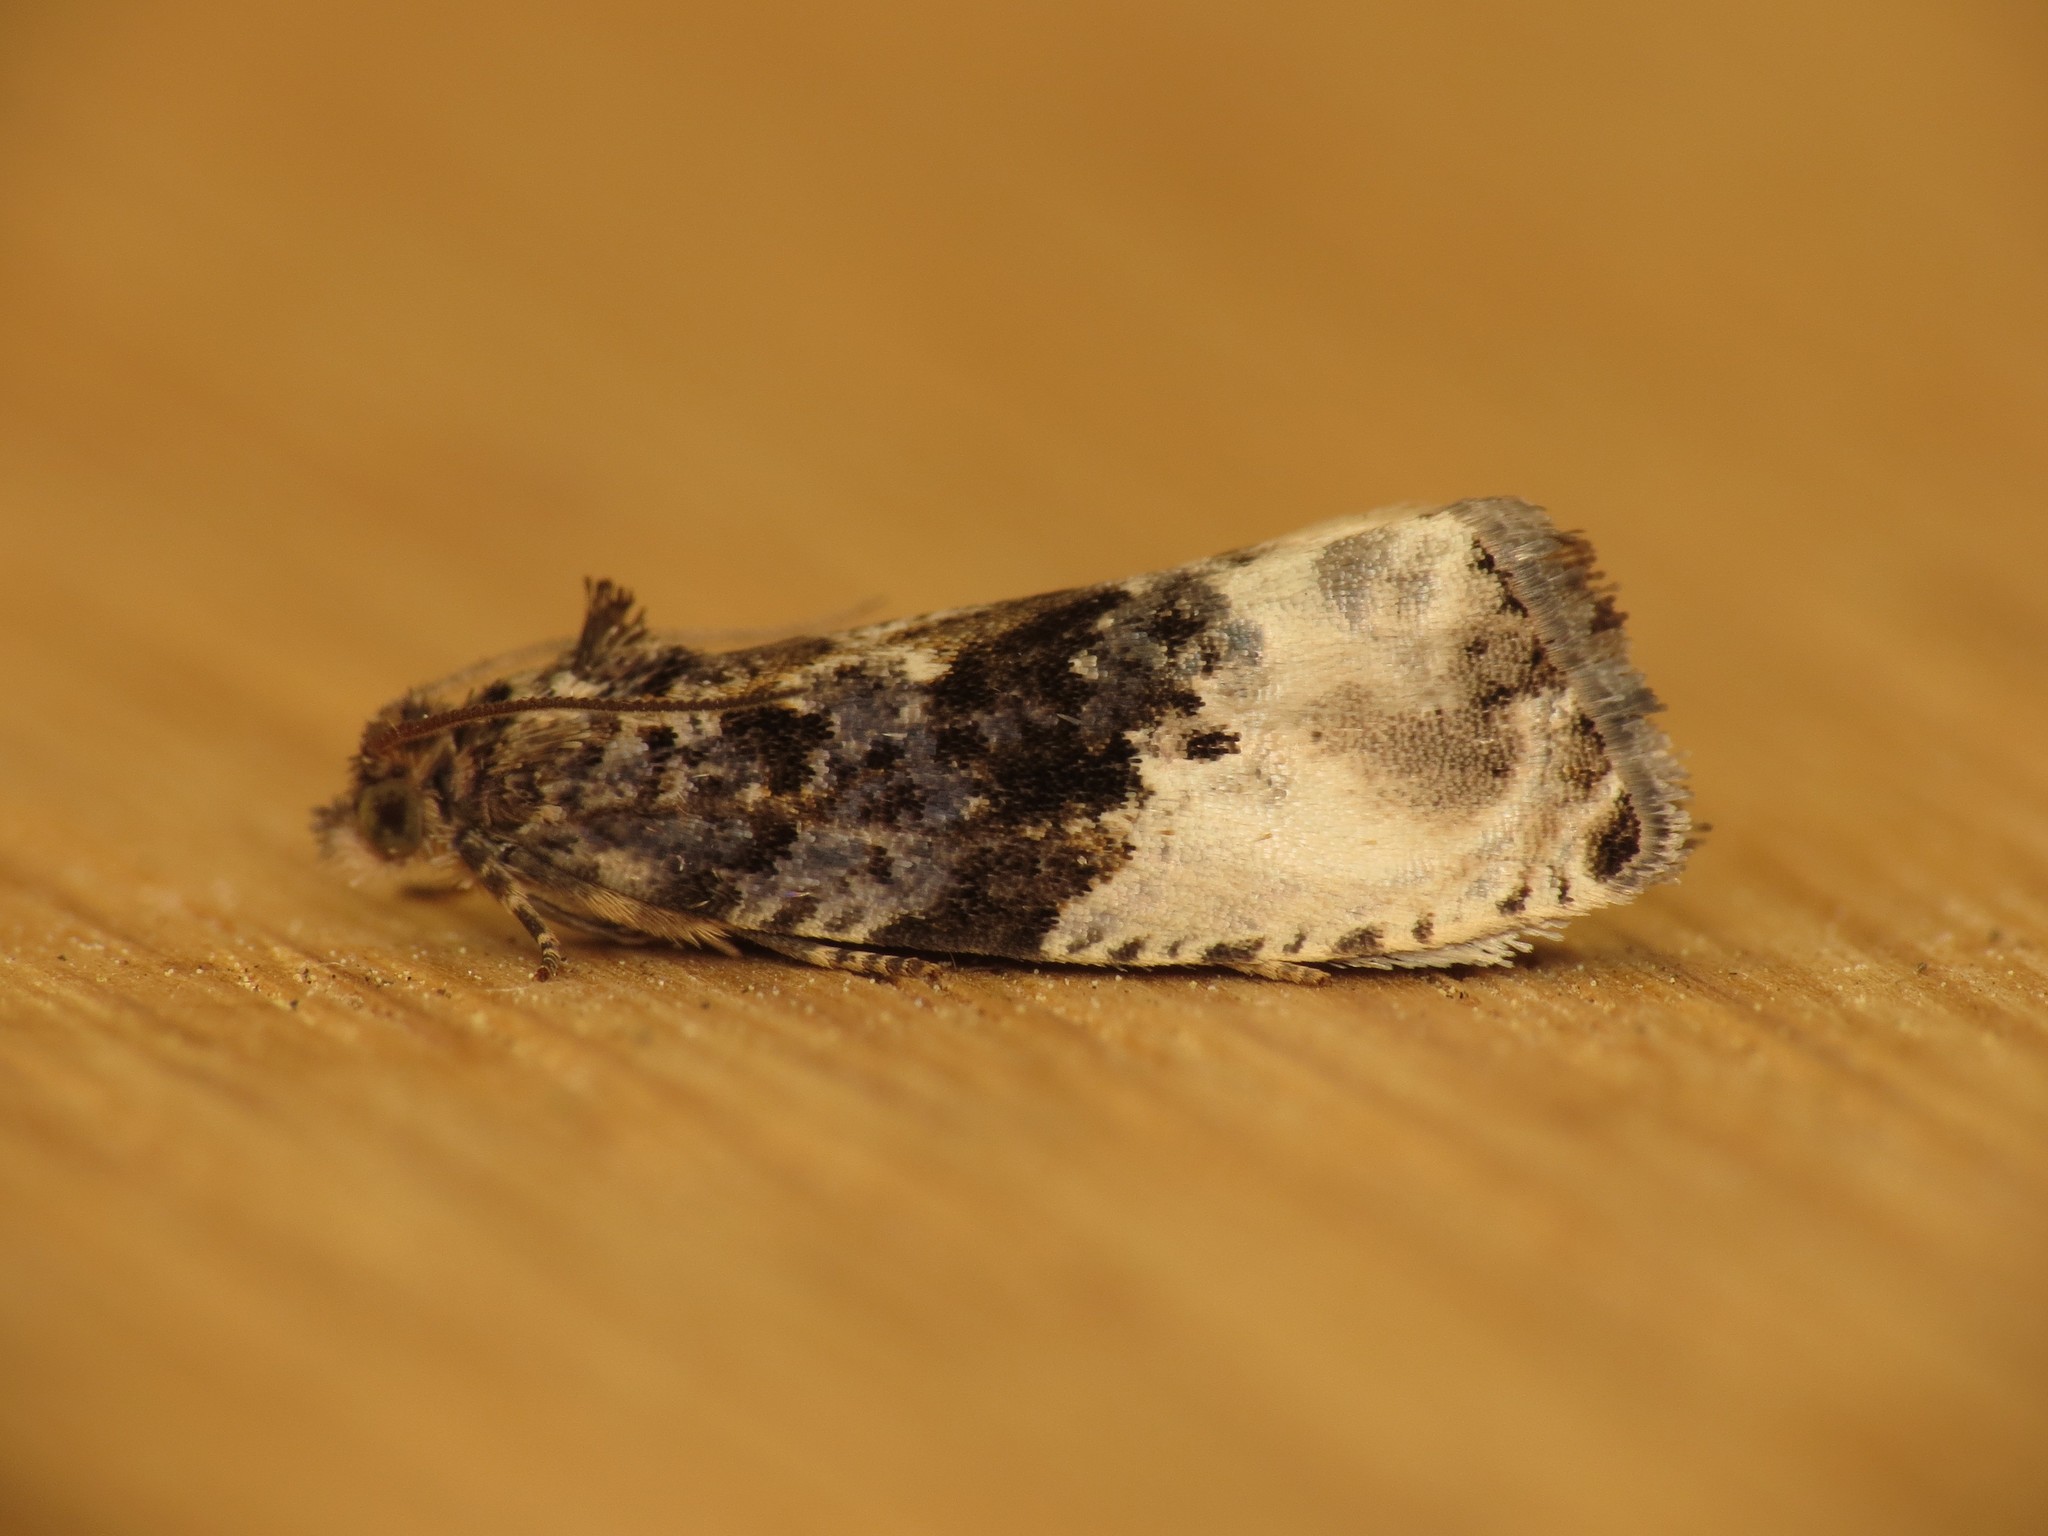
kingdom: Animalia
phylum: Arthropoda
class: Insecta
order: Lepidoptera
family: Tortricidae
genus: Hedya
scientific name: Hedya nubiferana
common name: Marbled orchard tortrix
